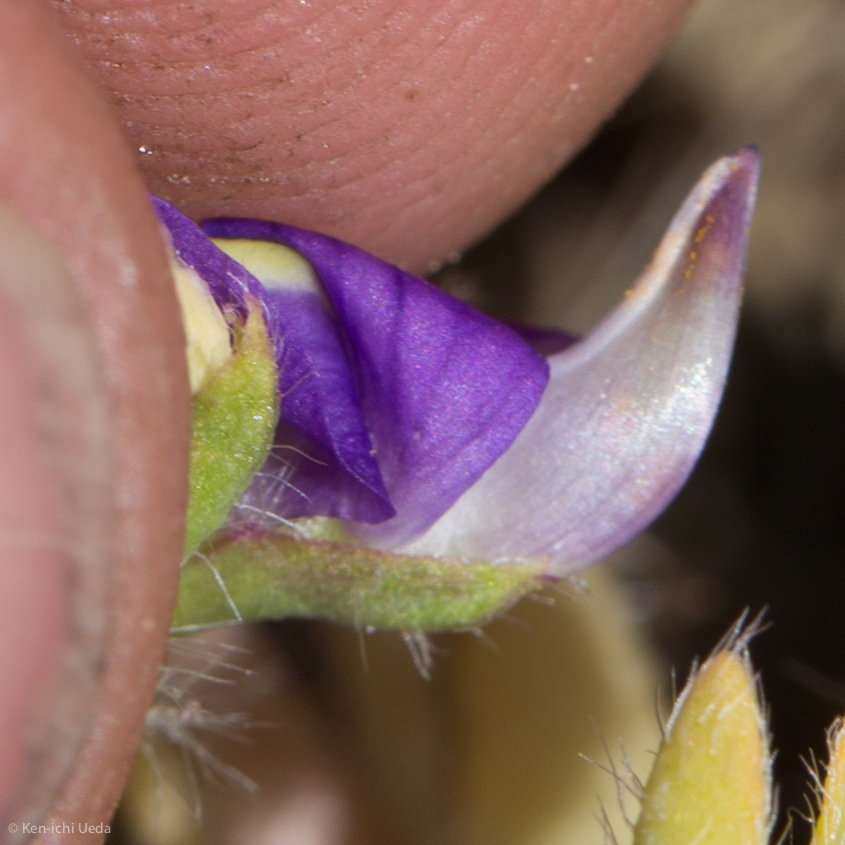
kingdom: Plantae
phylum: Tracheophyta
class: Magnoliopsida
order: Fabales
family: Fabaceae
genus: Lupinus
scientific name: Lupinus flavoculatus
